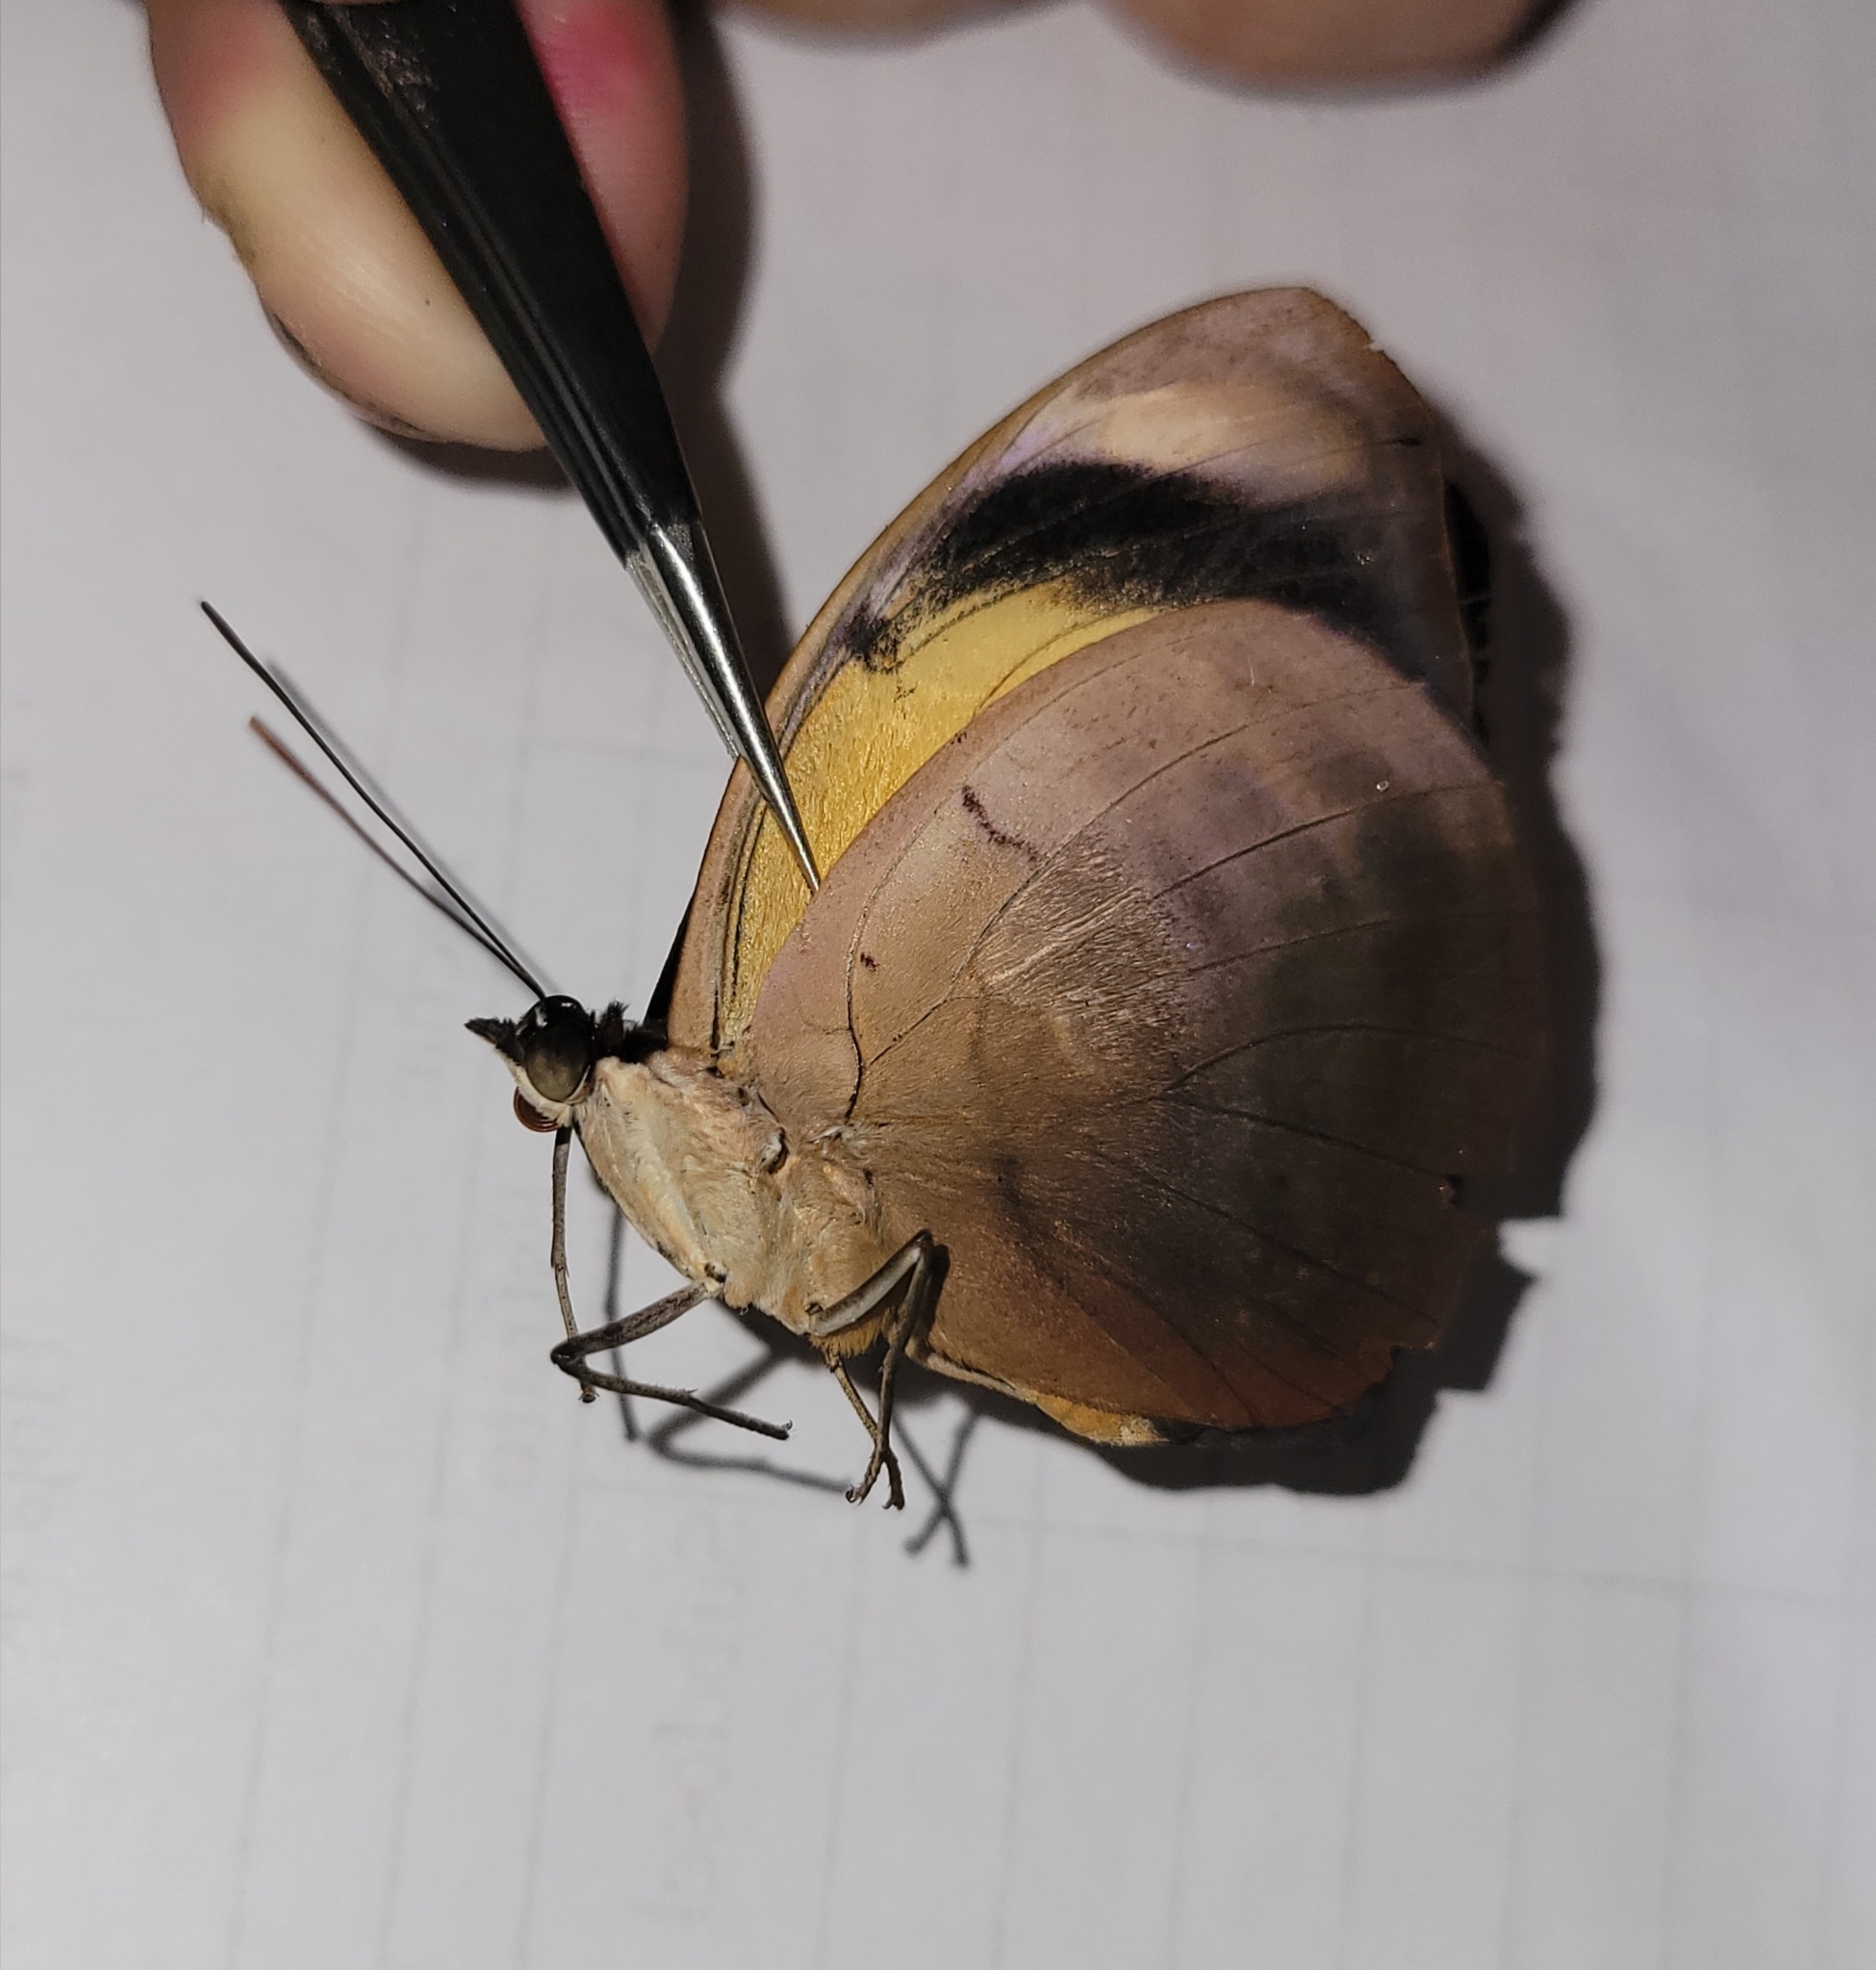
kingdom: Animalia
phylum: Arthropoda
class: Insecta
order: Lepidoptera
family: Nymphalidae
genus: Catonephele
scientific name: Catonephele numilia
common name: Blue-frosted banner
